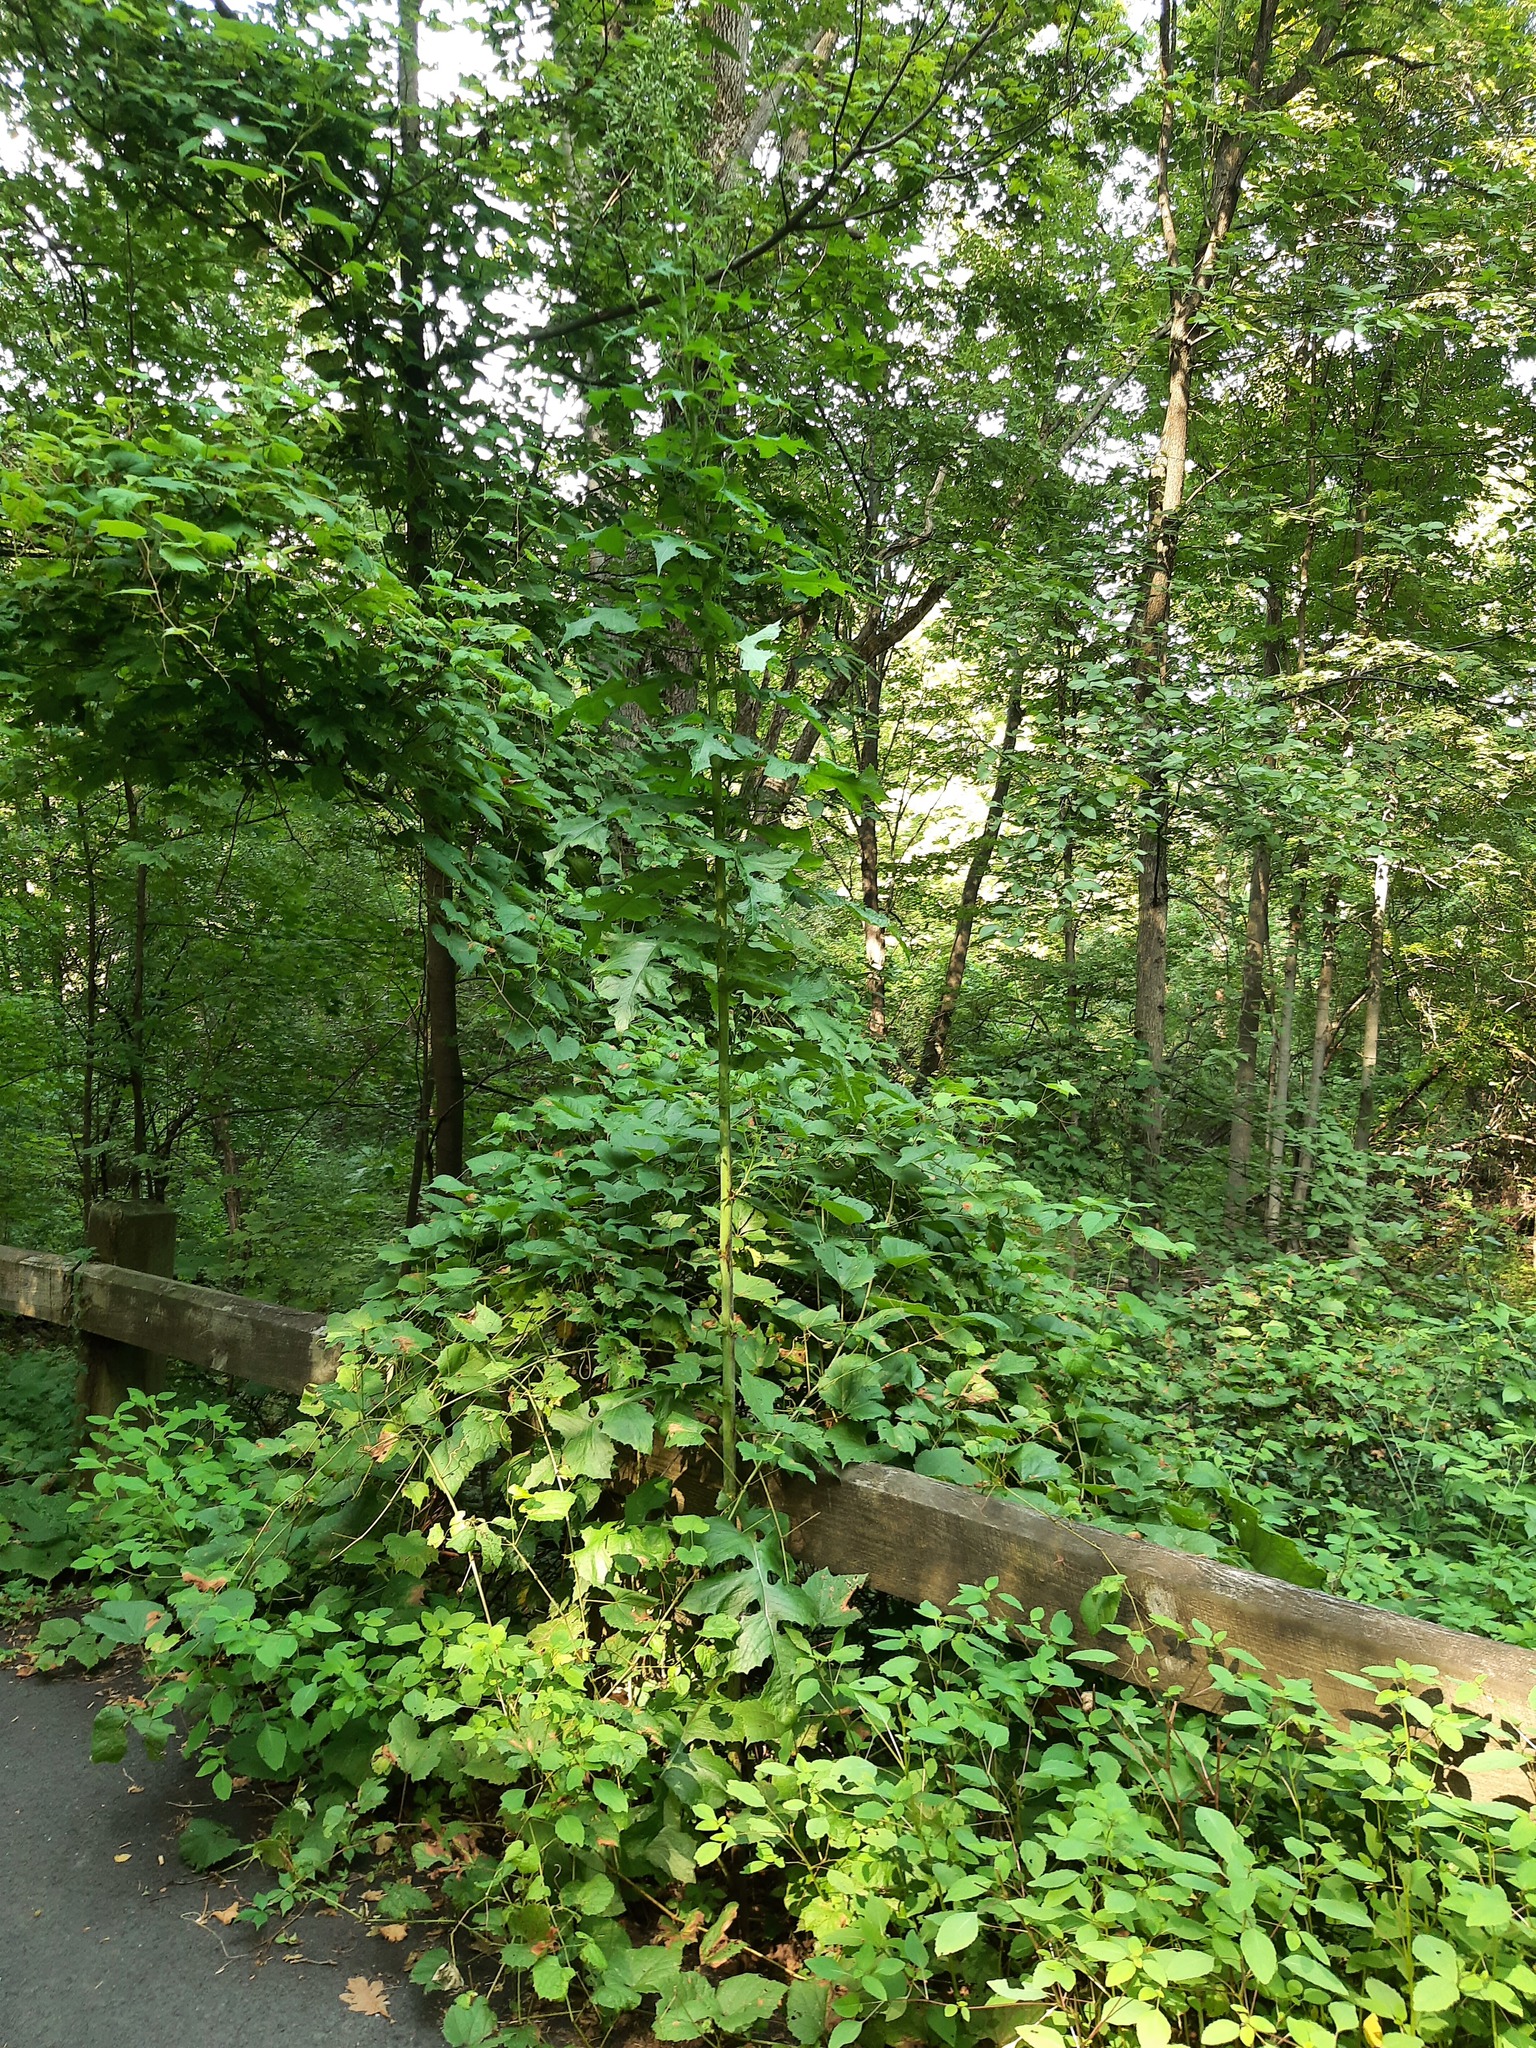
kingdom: Plantae
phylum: Tracheophyta
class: Magnoliopsida
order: Asterales
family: Asteraceae
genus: Lactuca
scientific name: Lactuca biennis
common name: Blue wood lettuce
